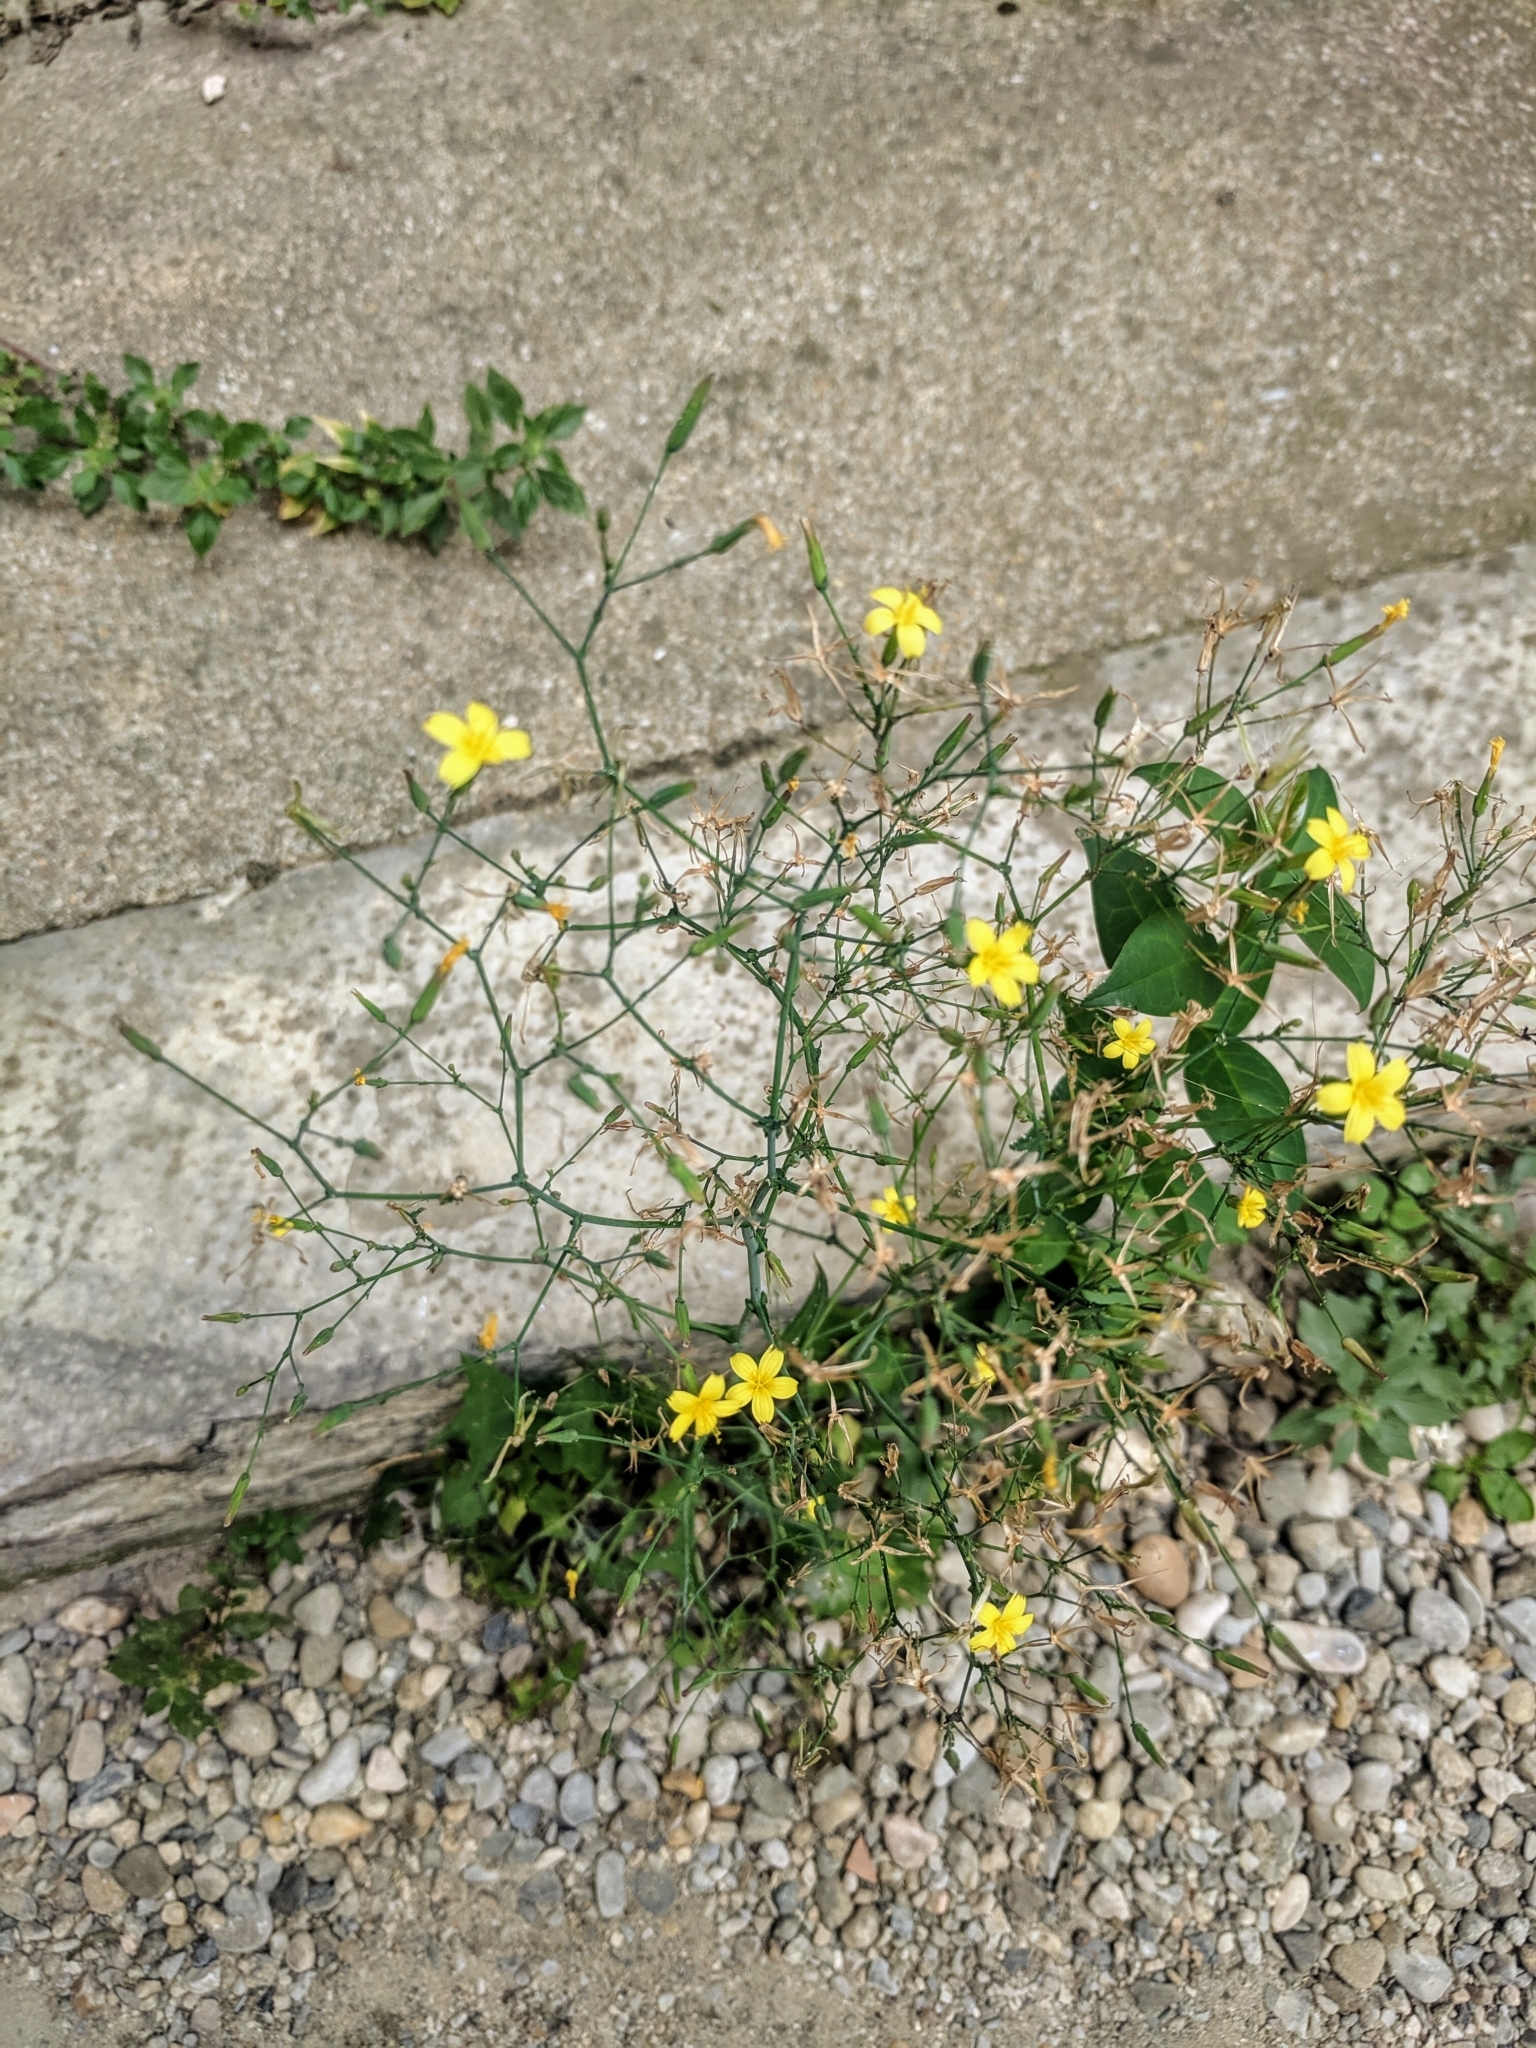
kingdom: Plantae
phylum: Tracheophyta
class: Magnoliopsida
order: Asterales
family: Asteraceae
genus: Mycelis
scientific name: Mycelis muralis
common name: Wall lettuce
